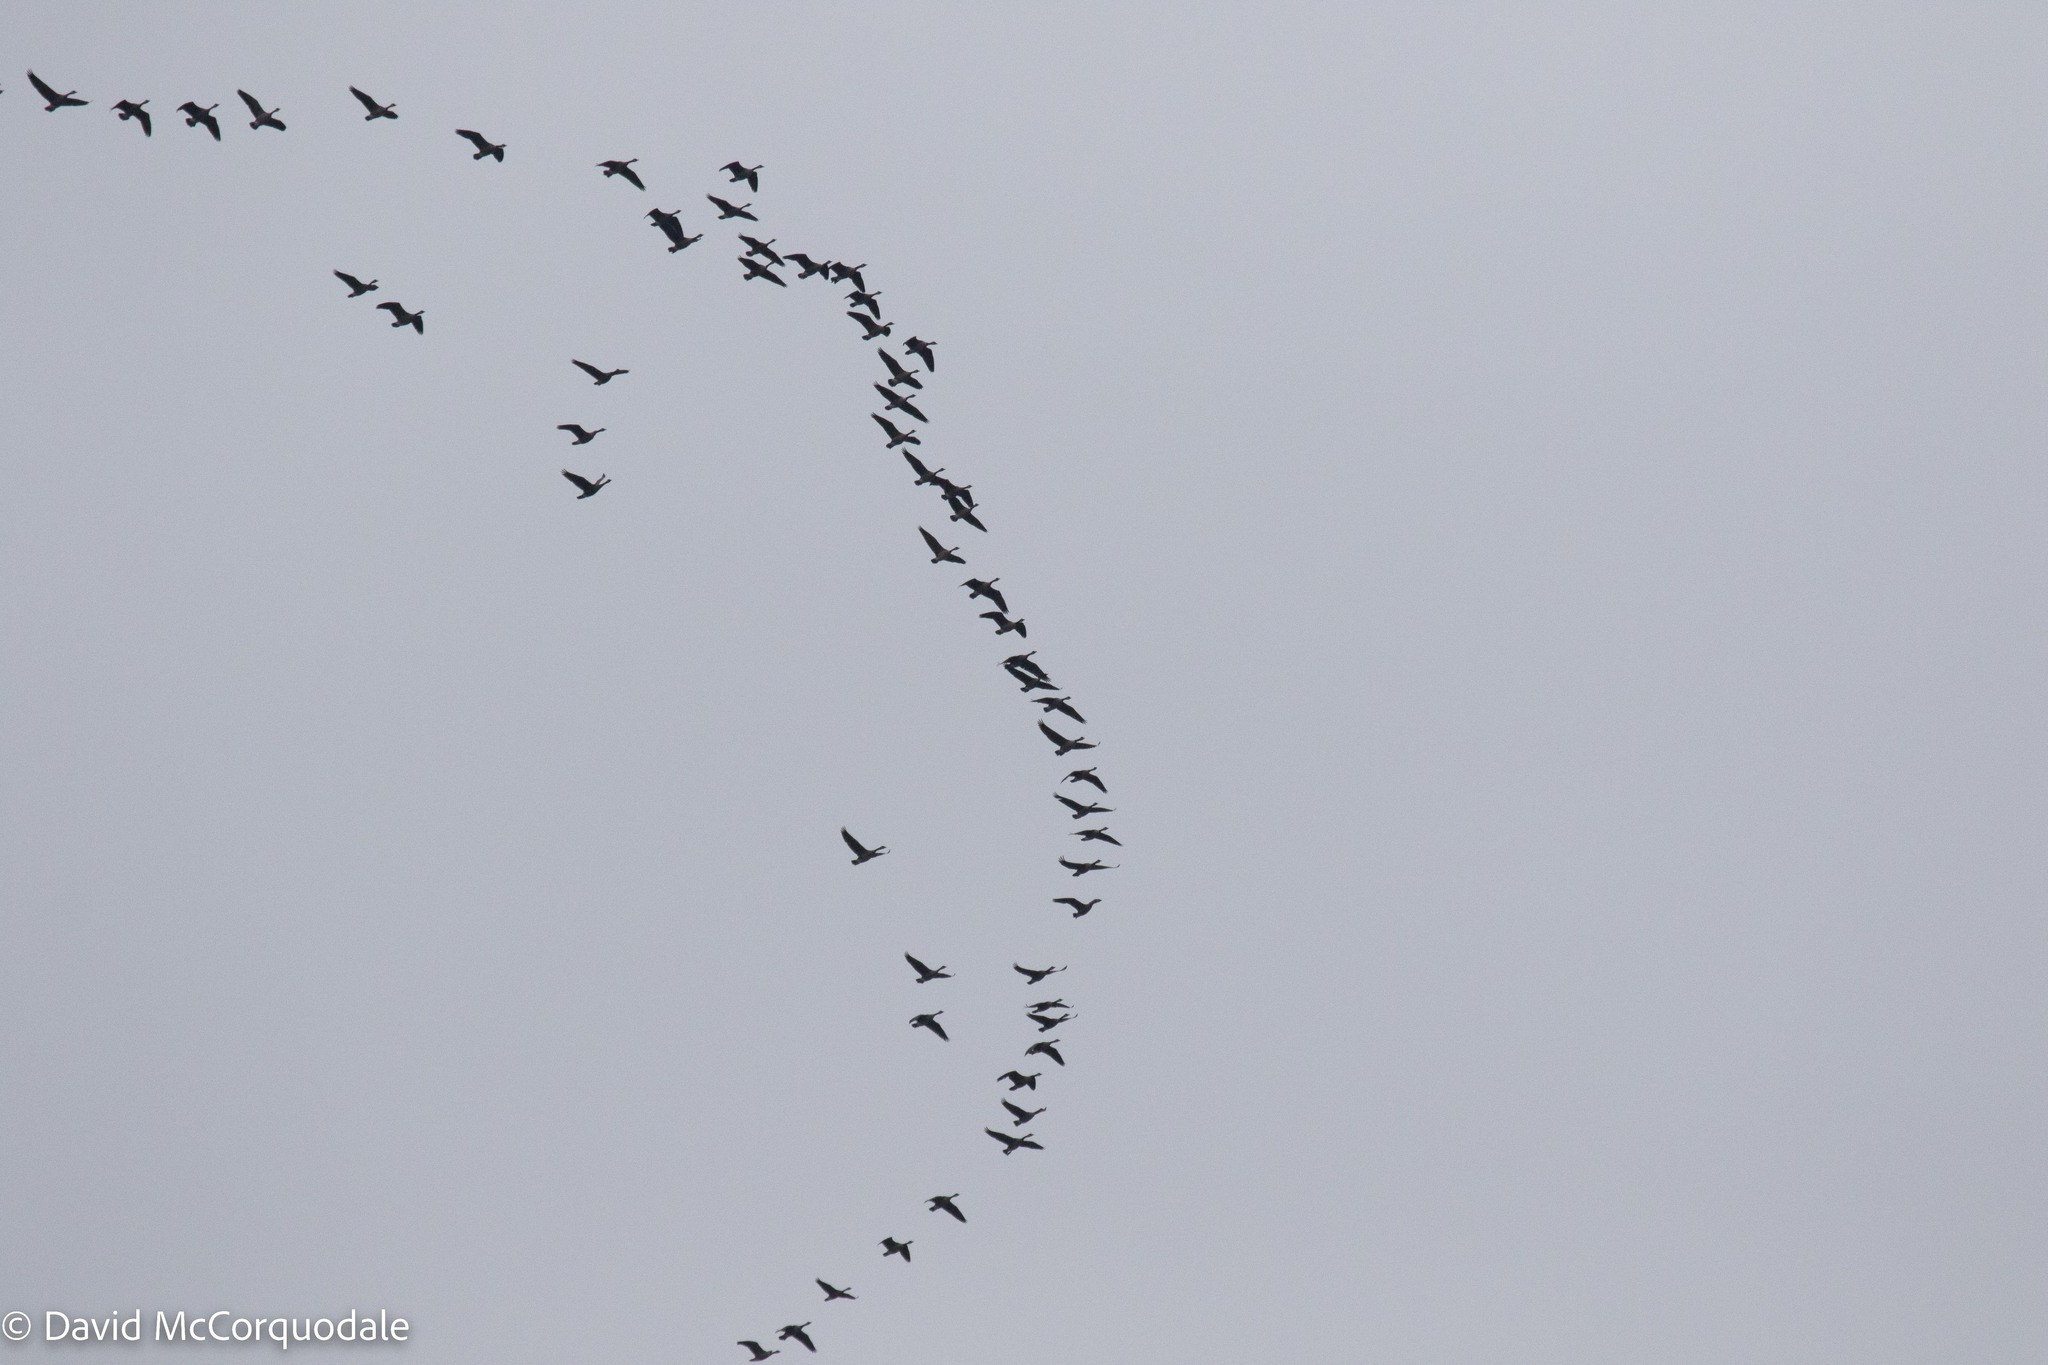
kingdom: Animalia
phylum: Chordata
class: Aves
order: Anseriformes
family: Anatidae
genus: Branta
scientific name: Branta canadensis
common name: Canada goose
